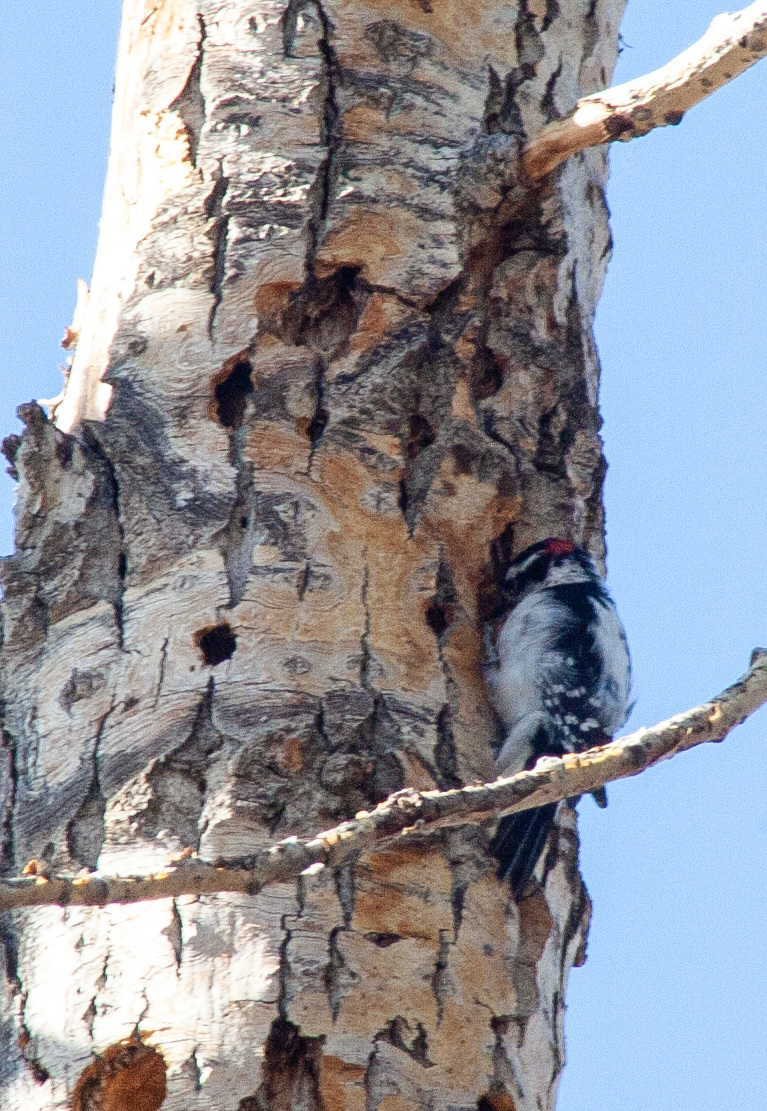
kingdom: Animalia
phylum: Chordata
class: Aves
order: Piciformes
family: Picidae
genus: Dryobates
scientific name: Dryobates pubescens
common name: Downy woodpecker
